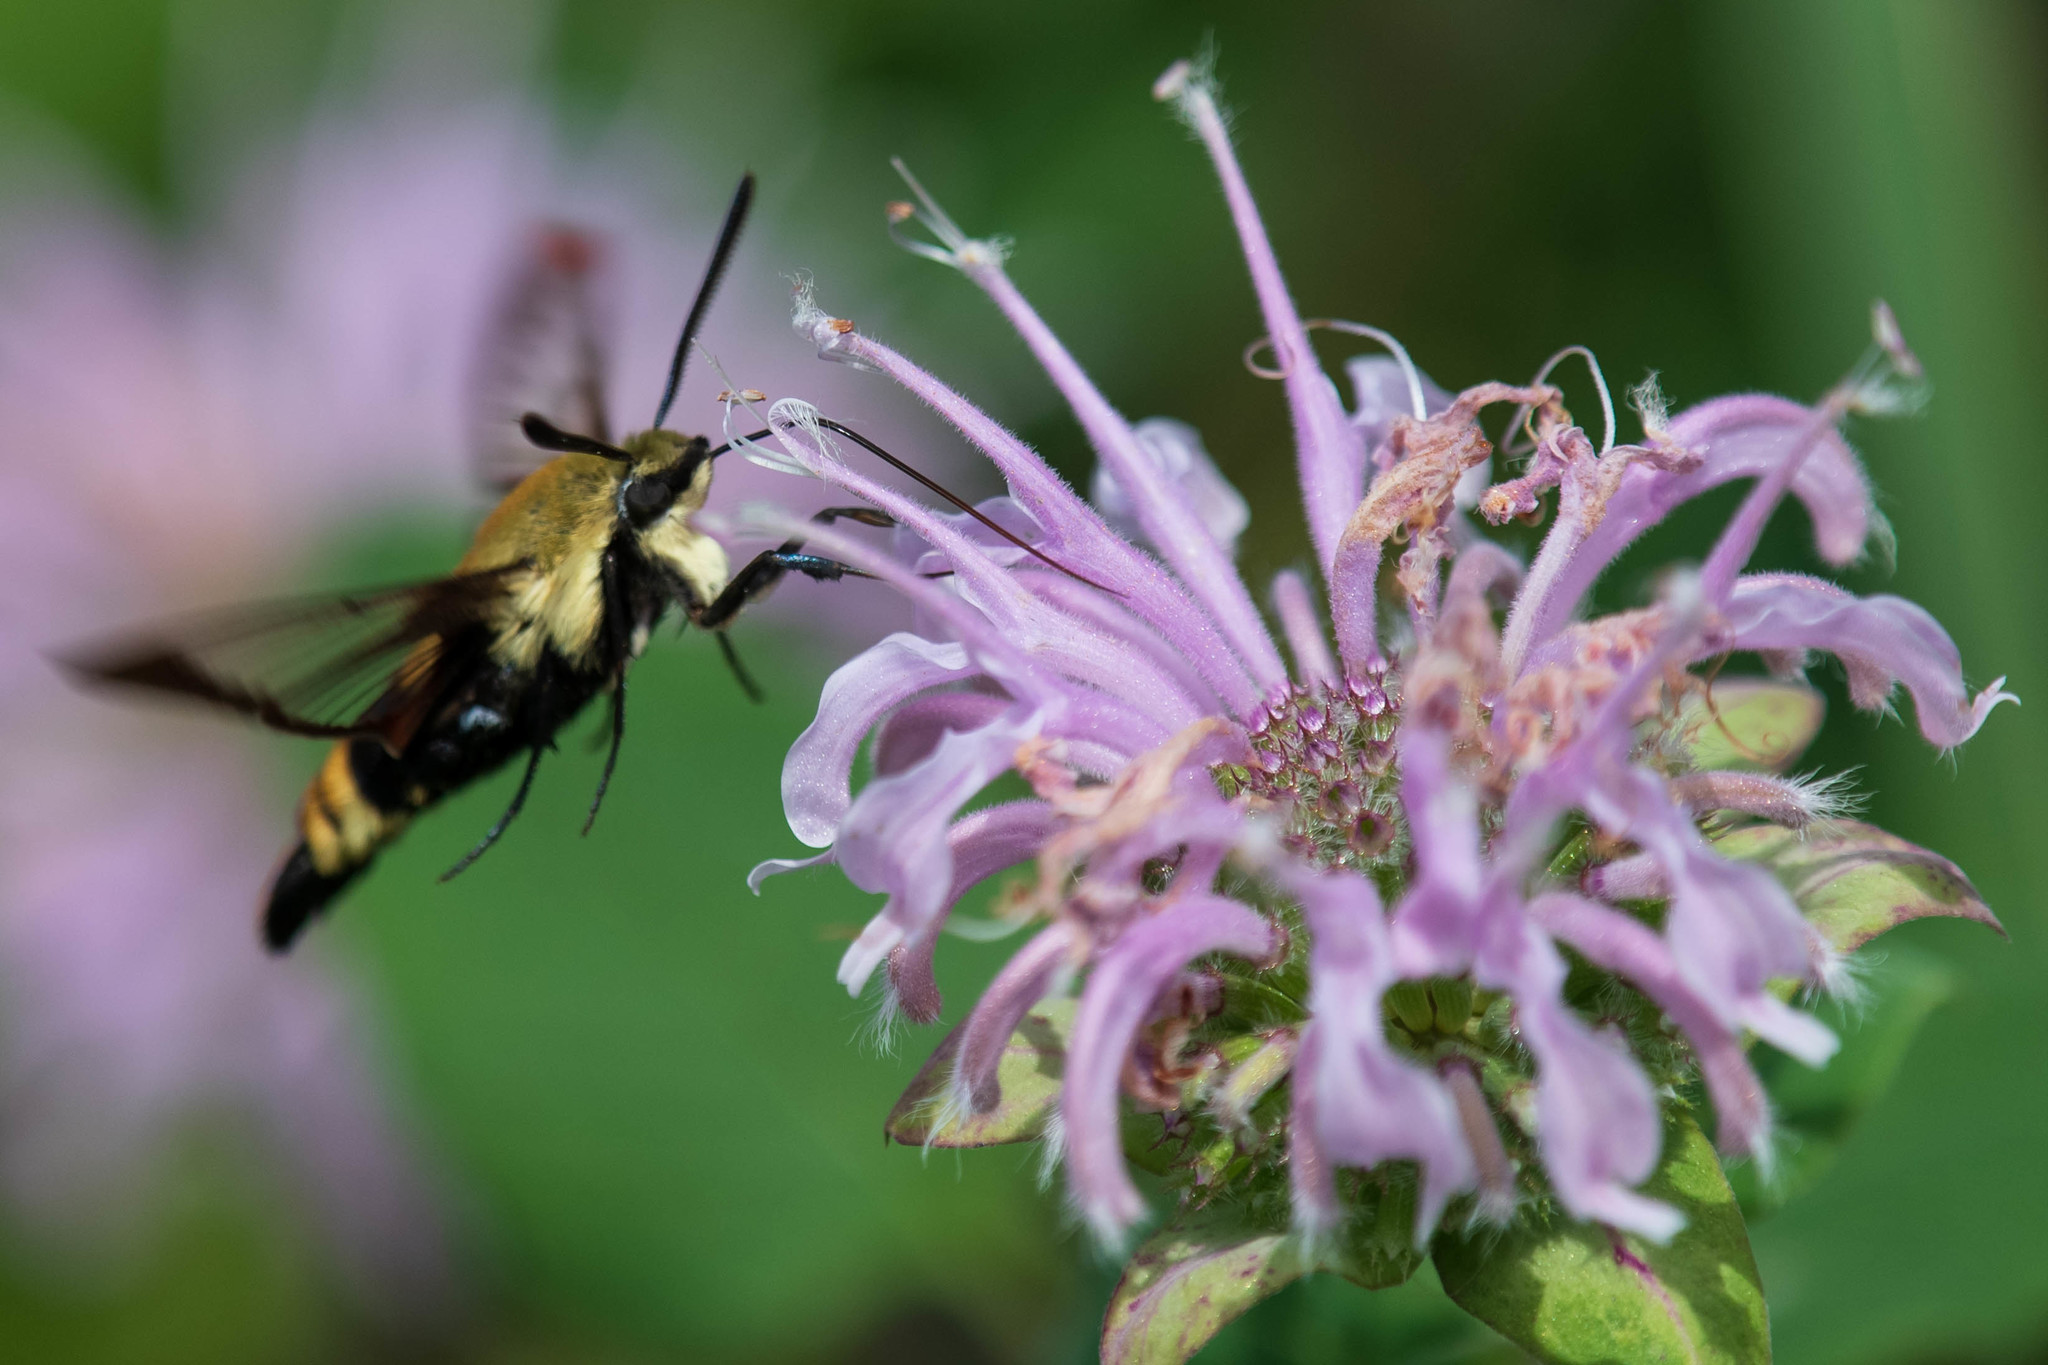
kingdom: Animalia
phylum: Arthropoda
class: Insecta
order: Lepidoptera
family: Sphingidae
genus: Hemaris
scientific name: Hemaris diffinis
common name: Bumblebee moth
